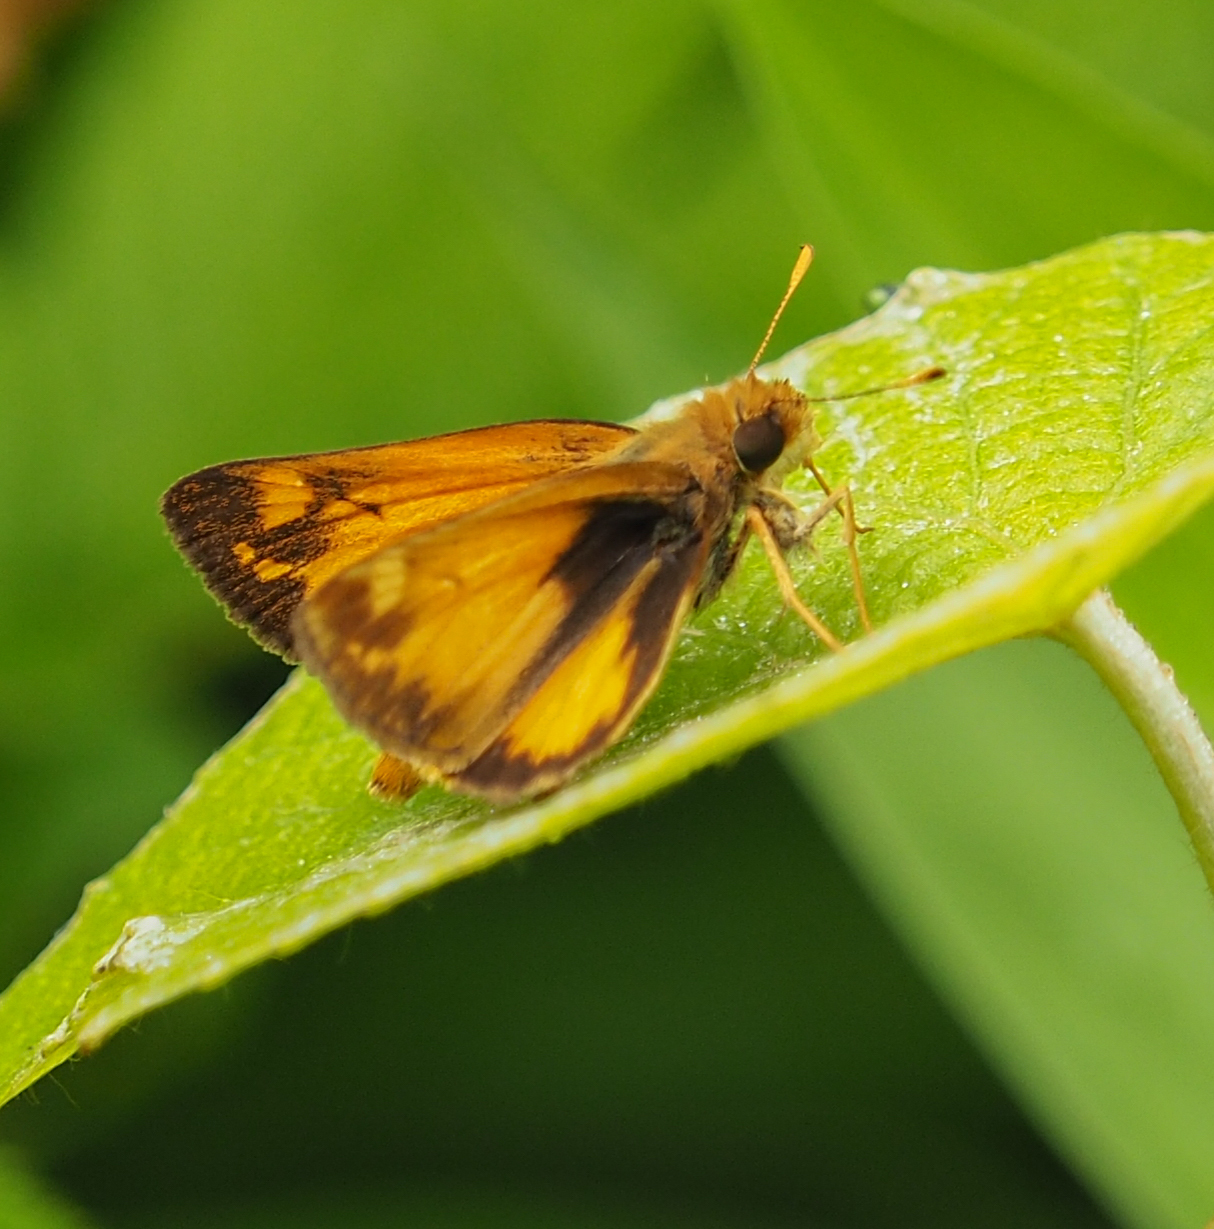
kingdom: Animalia
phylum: Arthropoda
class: Insecta
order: Lepidoptera
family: Hesperiidae
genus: Lon
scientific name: Lon zabulon
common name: Zabulon skipper
